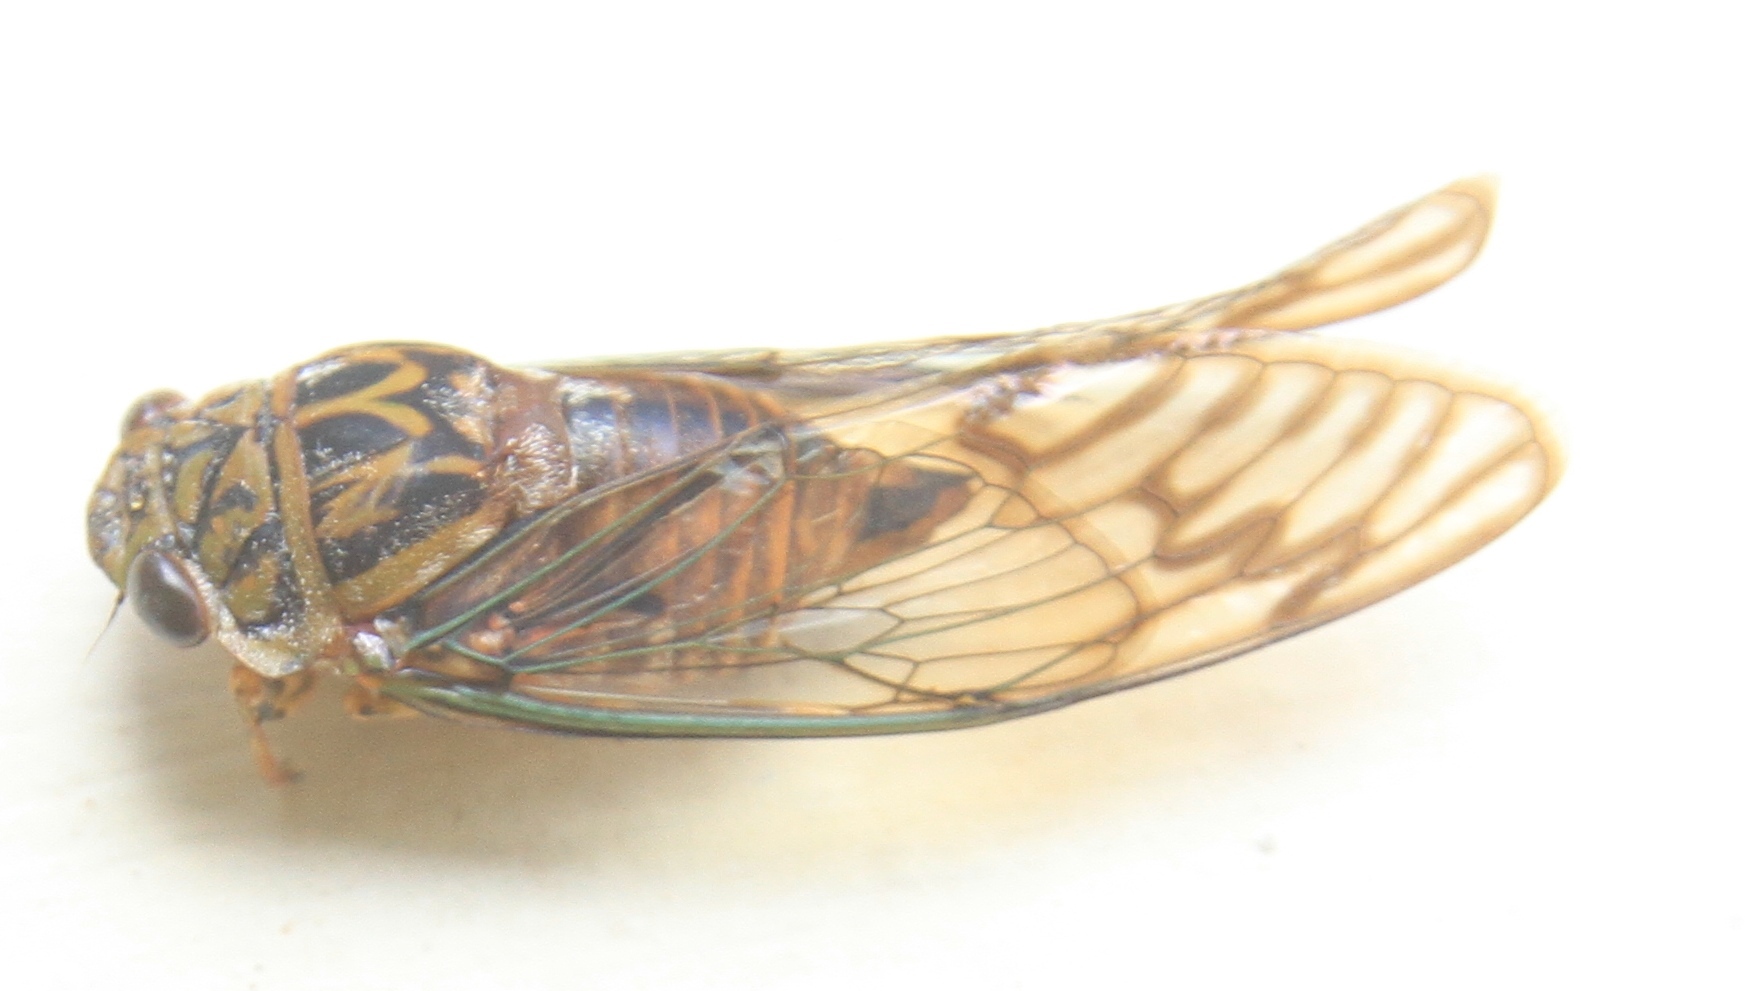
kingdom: Animalia
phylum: Arthropoda
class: Insecta
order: Hemiptera
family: Cicadidae
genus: Odopoea
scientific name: Odopoea vacillans
